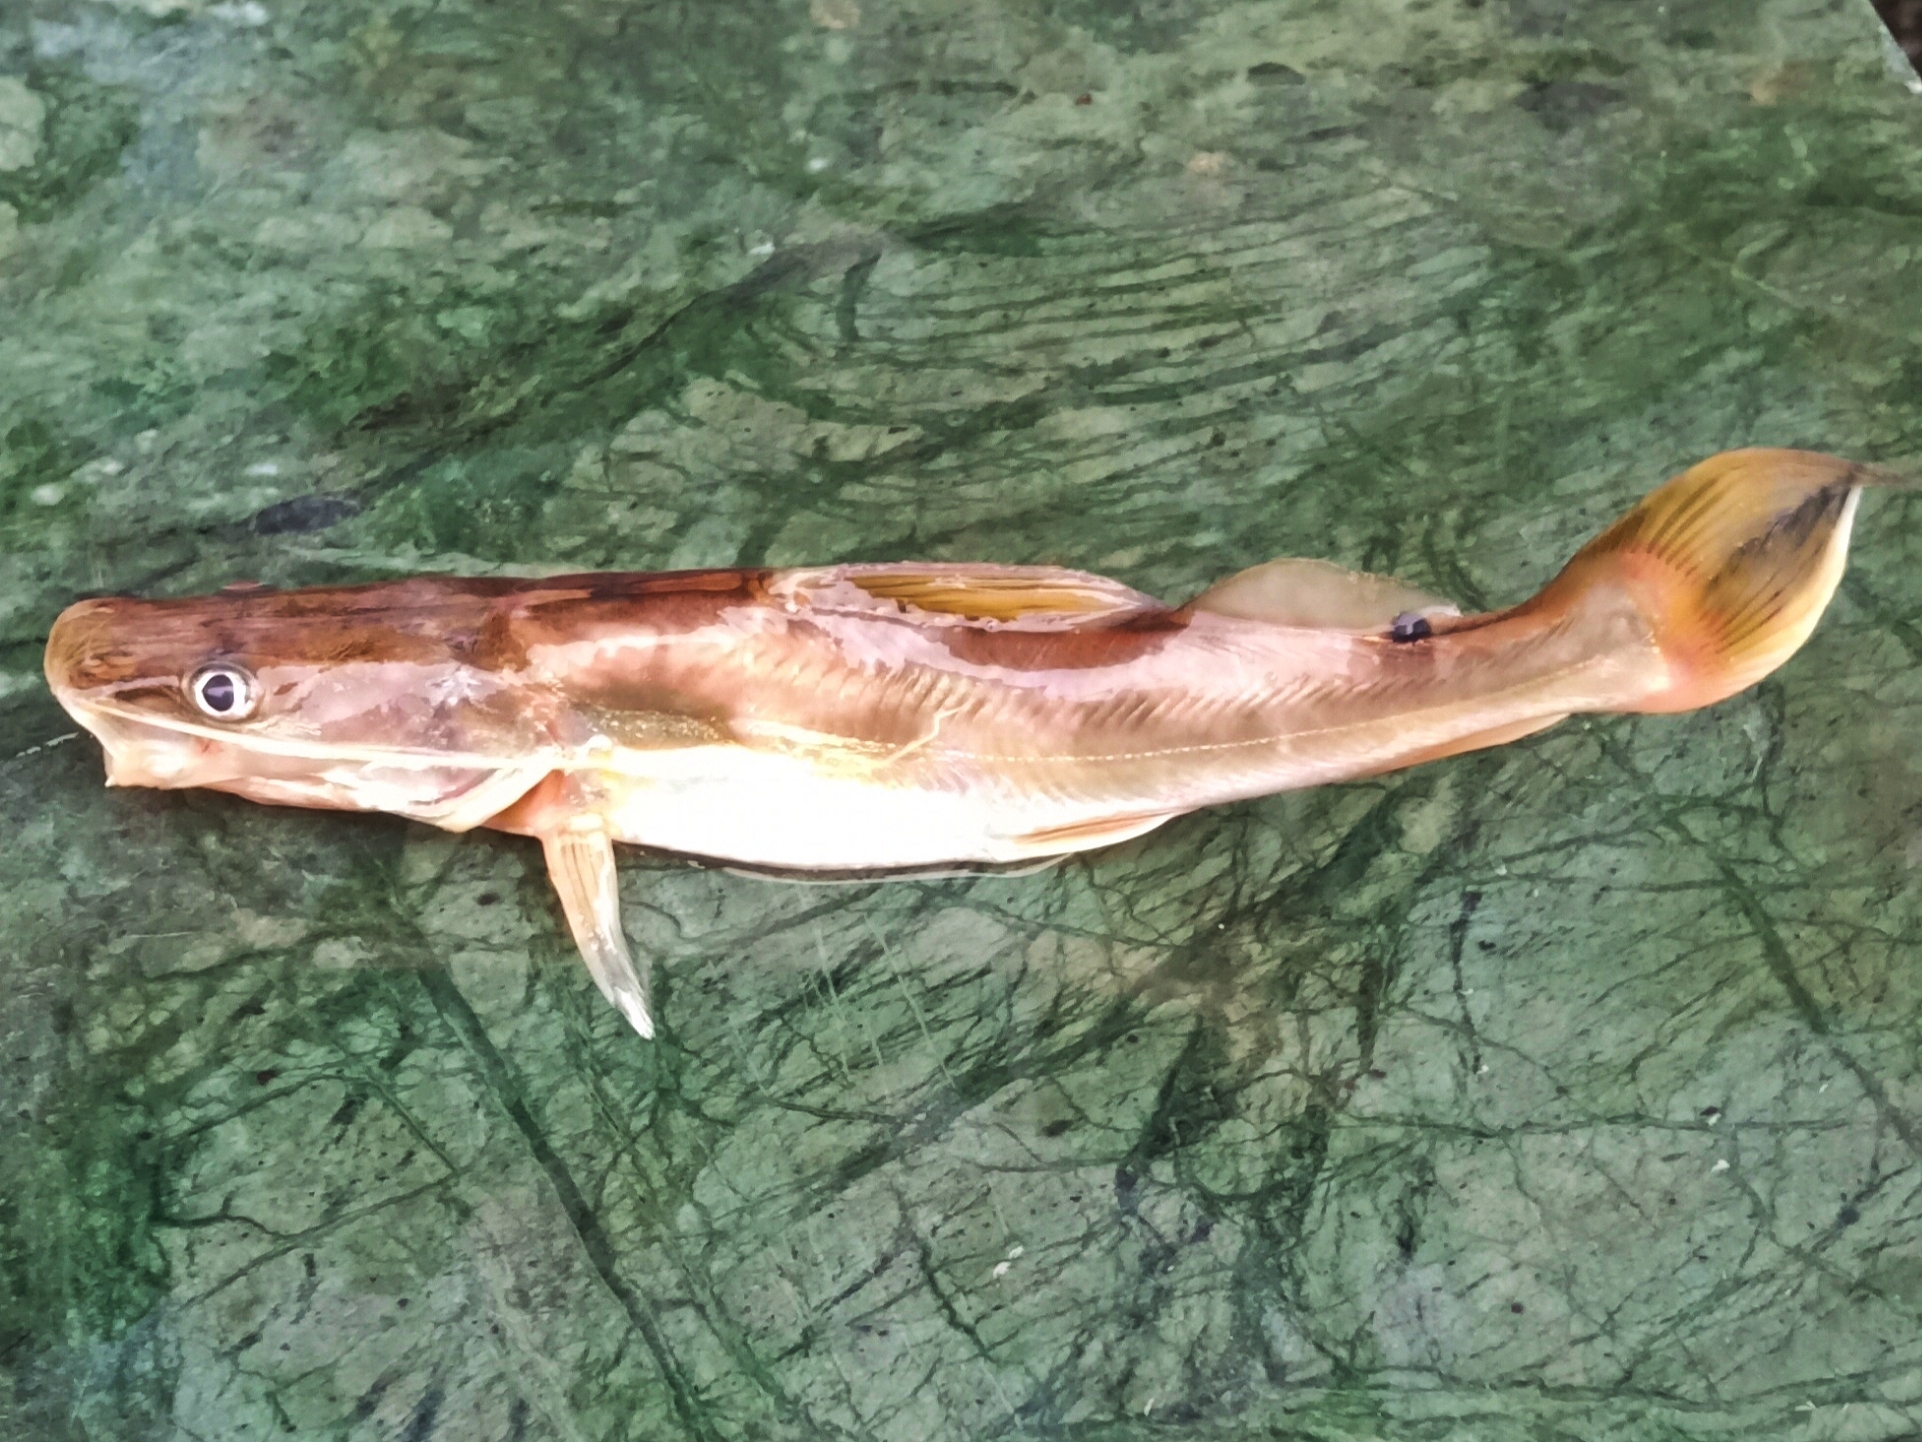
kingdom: Animalia
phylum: Chordata
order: Siluriformes
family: Bagridae
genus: Sperata
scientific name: Sperata aor
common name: Long-whiskered catfish
